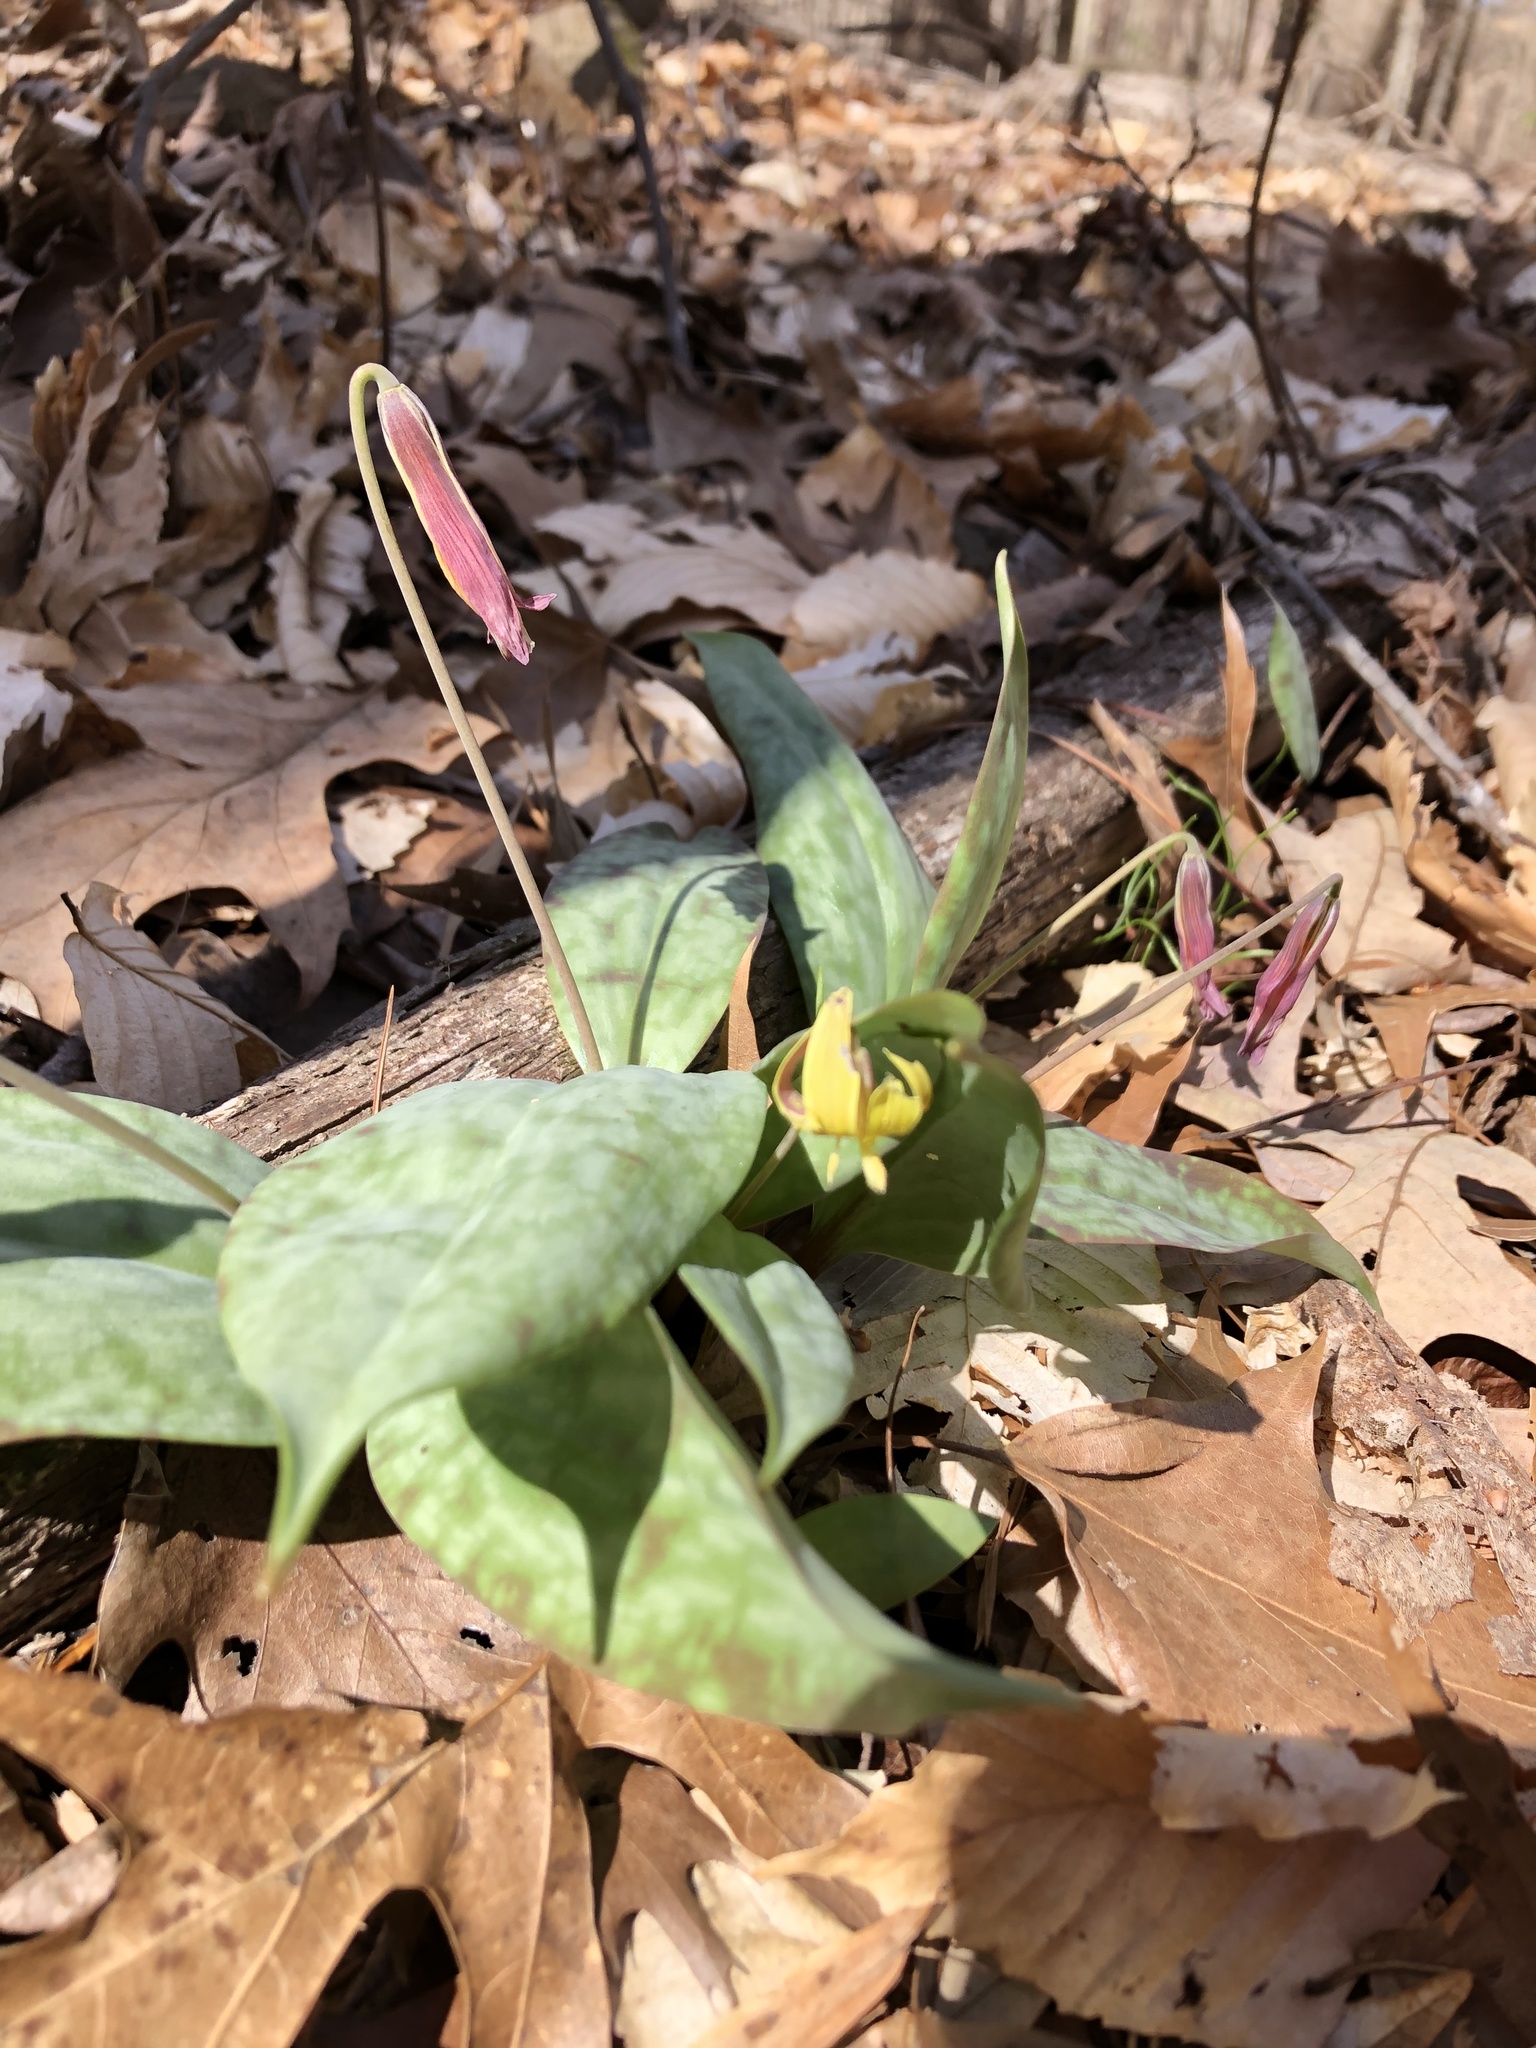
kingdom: Plantae
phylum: Tracheophyta
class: Liliopsida
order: Liliales
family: Liliaceae
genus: Erythronium
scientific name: Erythronium umbilicatum
